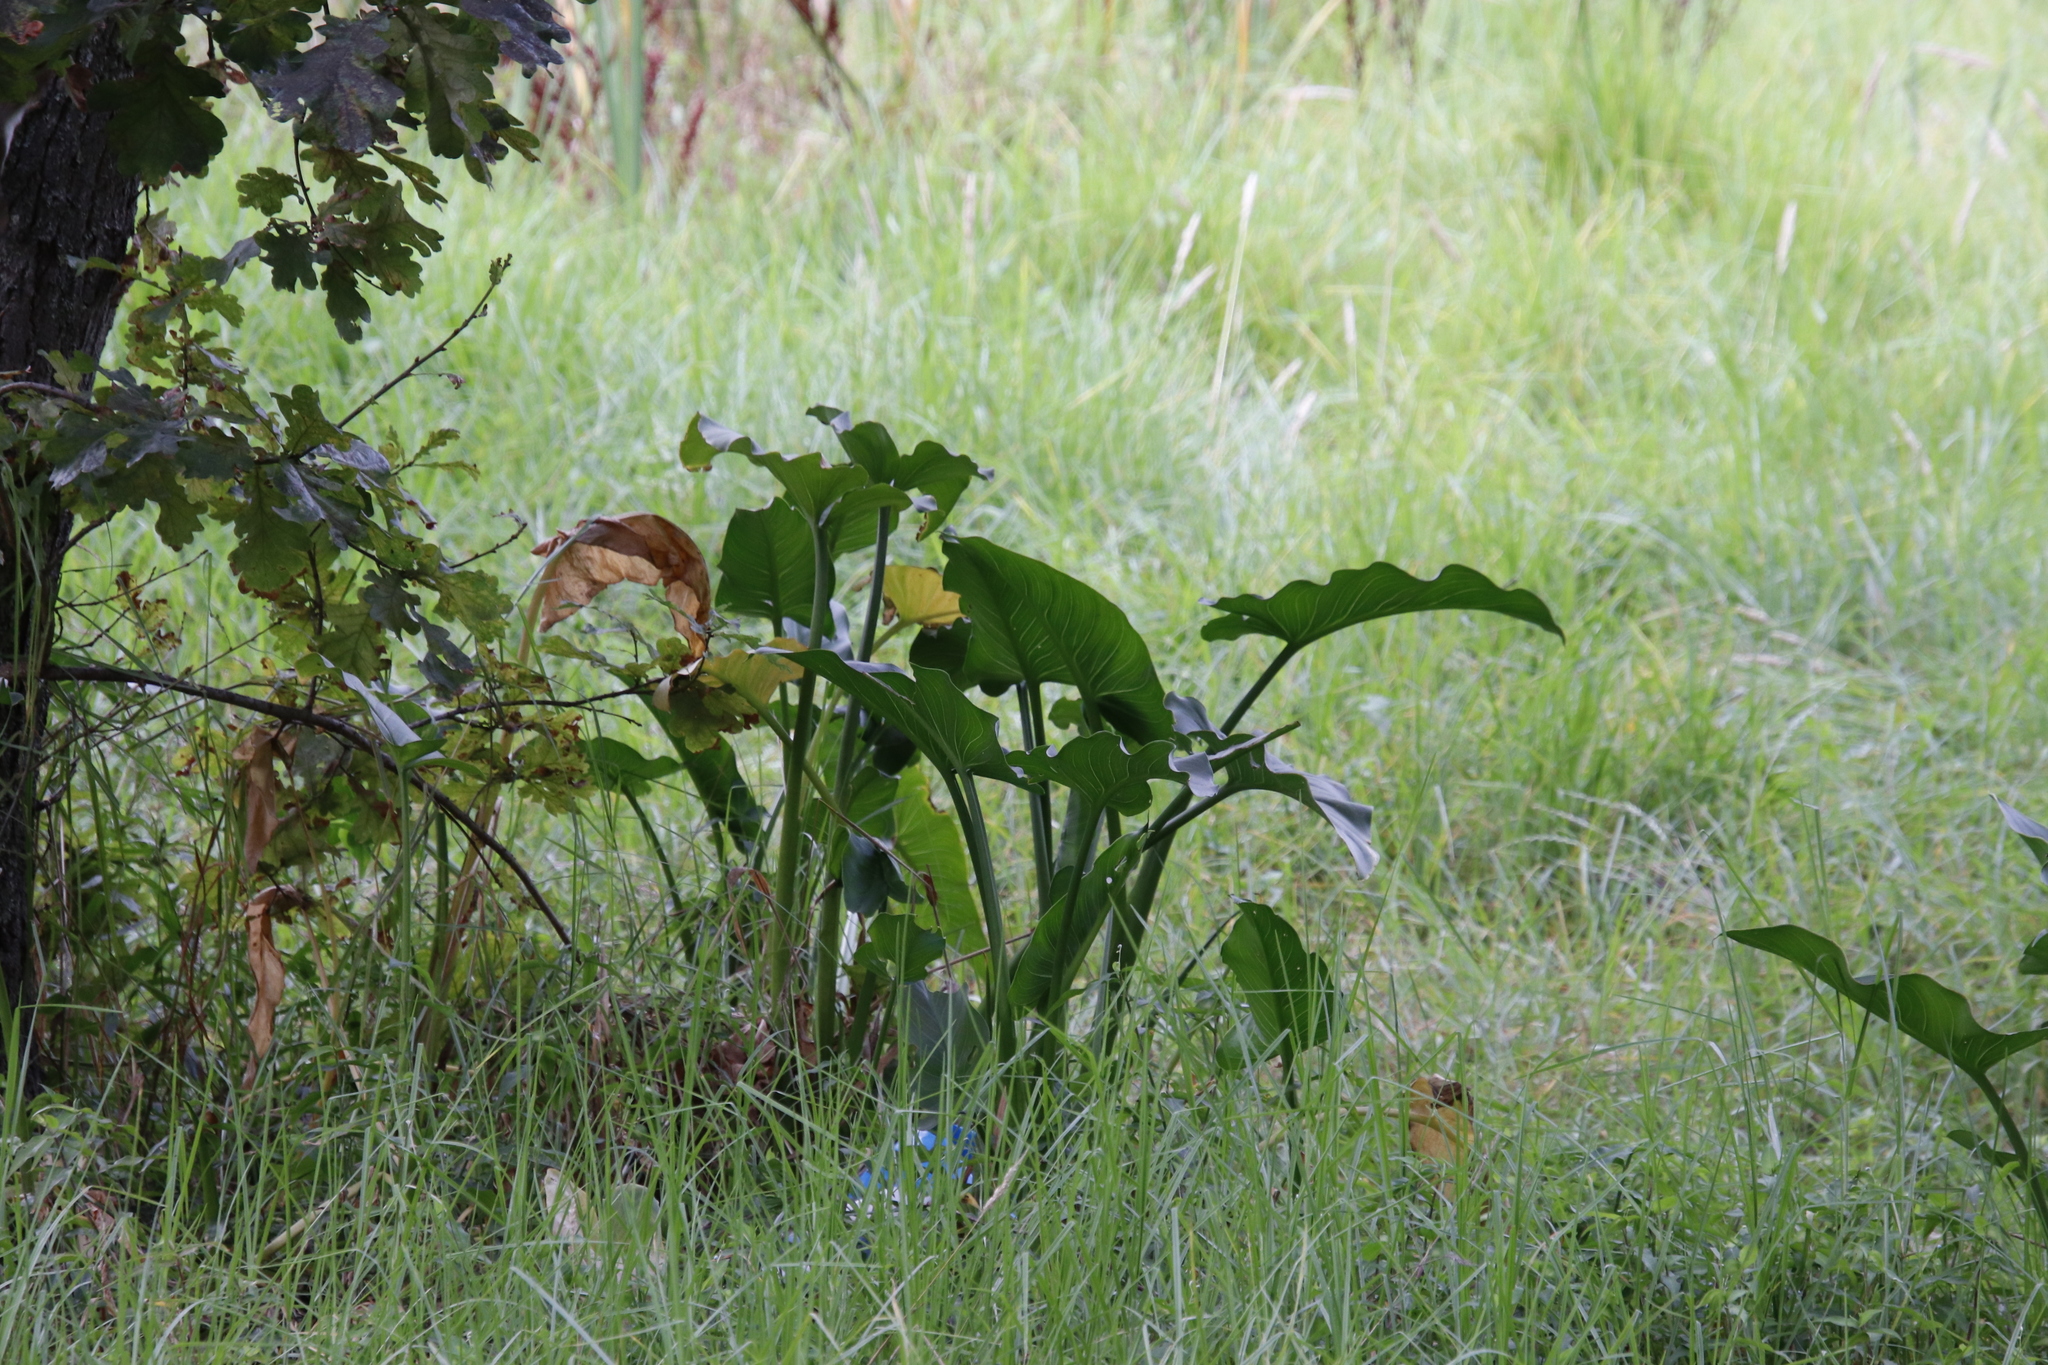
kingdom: Plantae
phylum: Tracheophyta
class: Liliopsida
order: Alismatales
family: Araceae
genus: Zantedeschia
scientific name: Zantedeschia aethiopica
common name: Altar-lily
